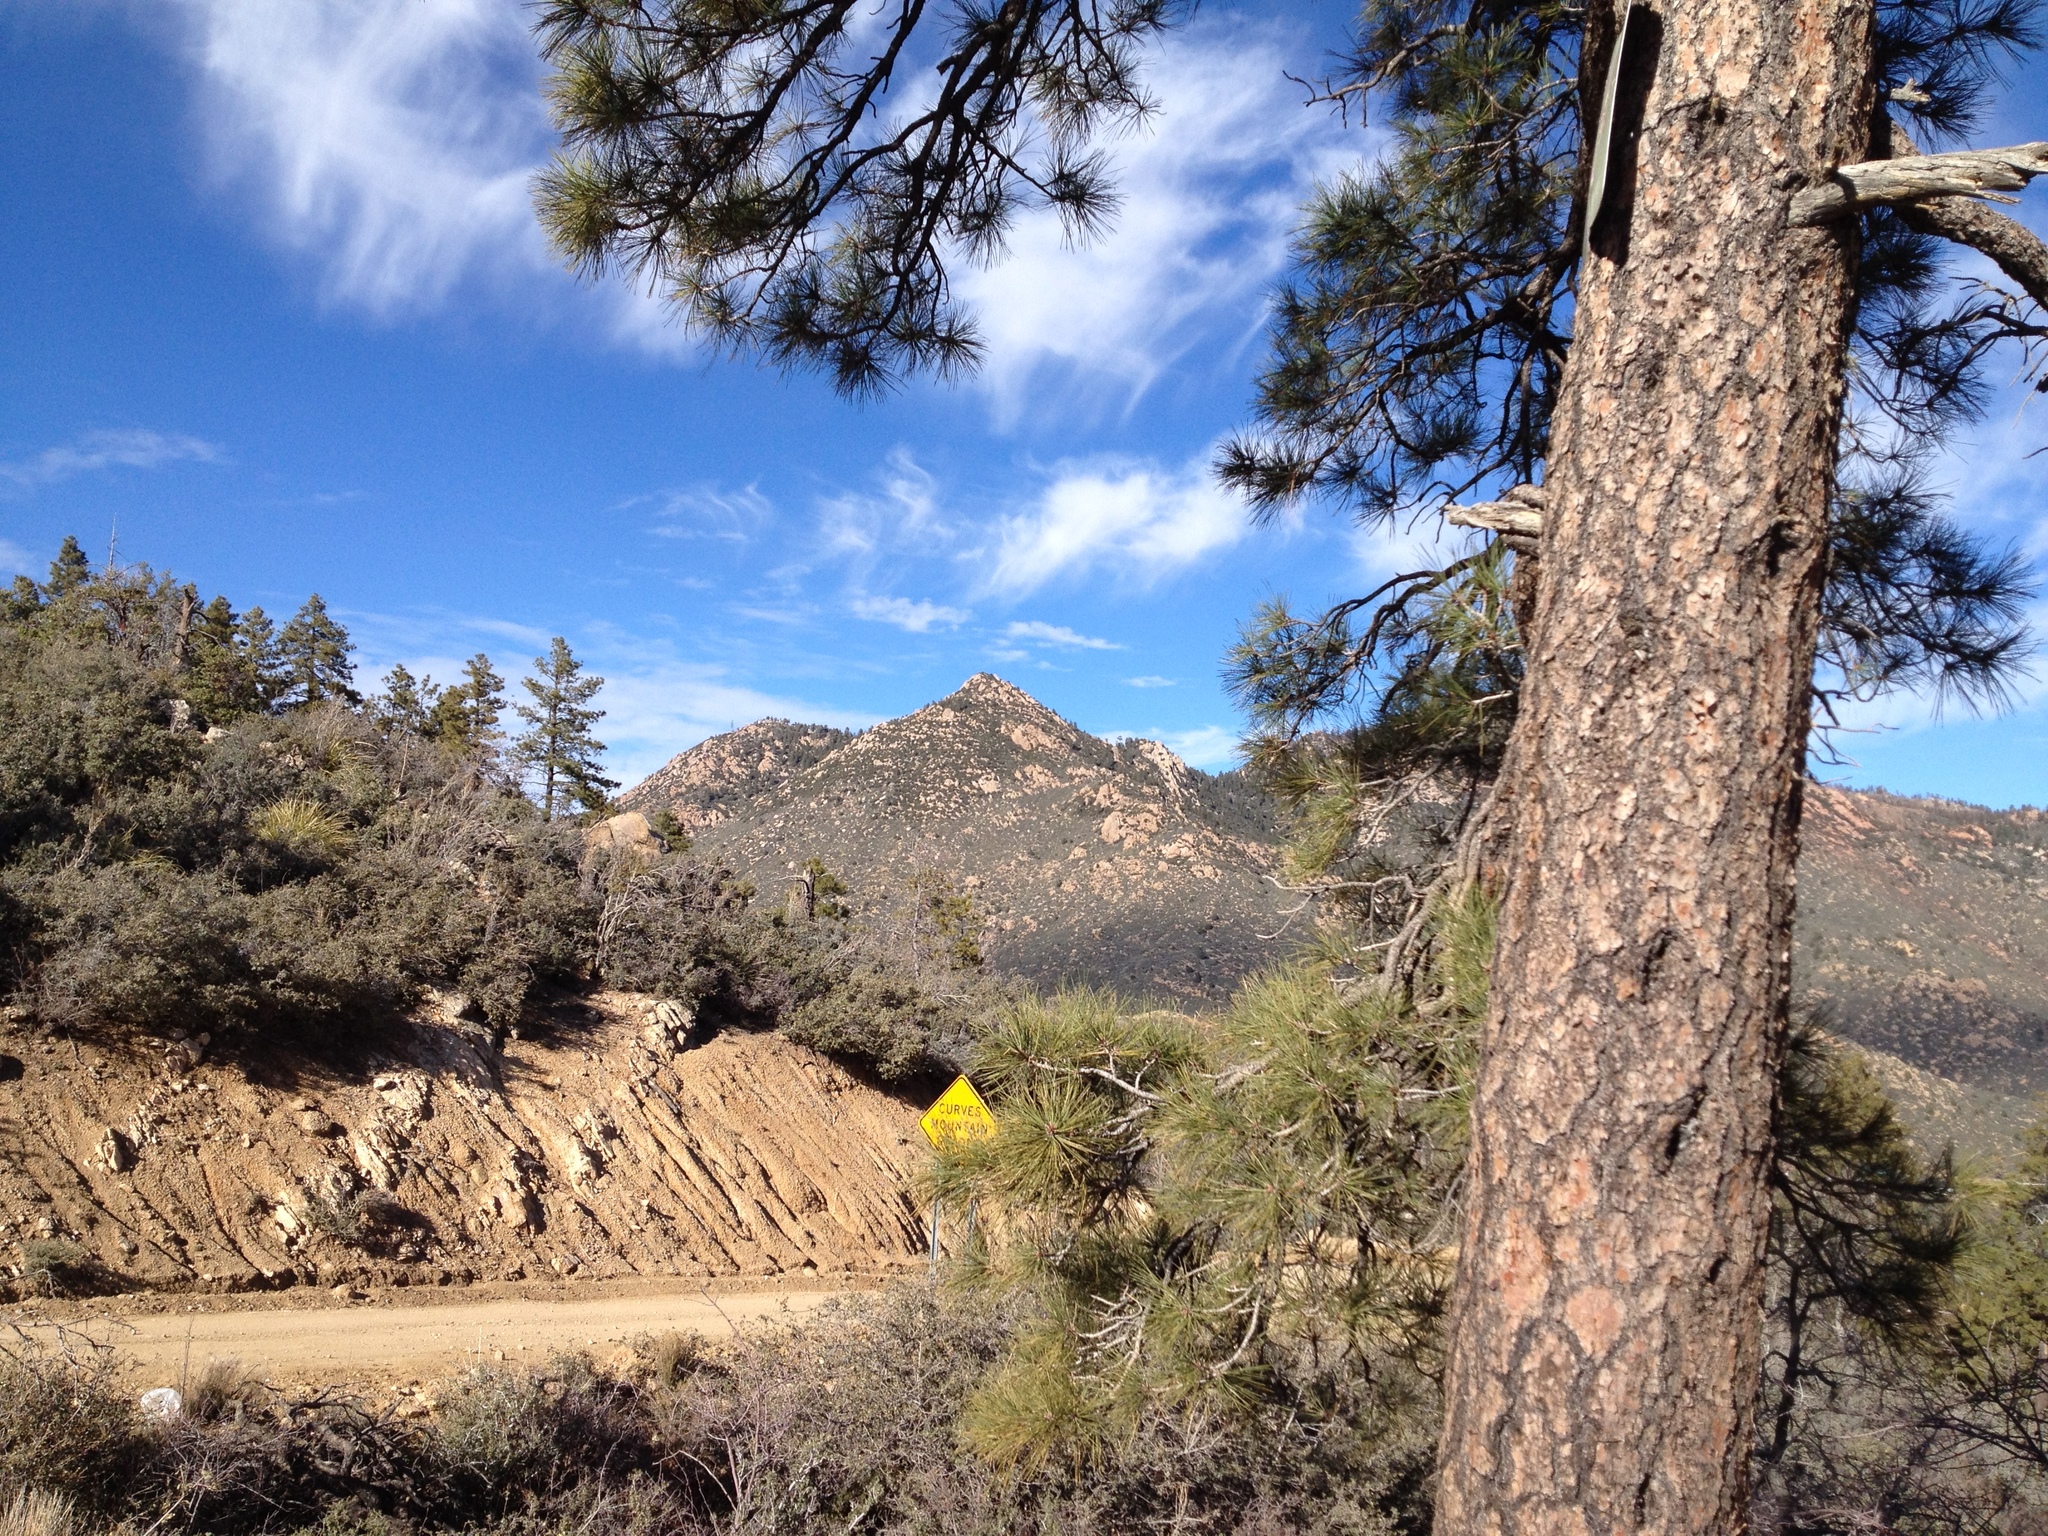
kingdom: Plantae
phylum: Tracheophyta
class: Pinopsida
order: Pinales
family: Pinaceae
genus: Pinus
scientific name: Pinus ponderosa
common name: Western yellow-pine
